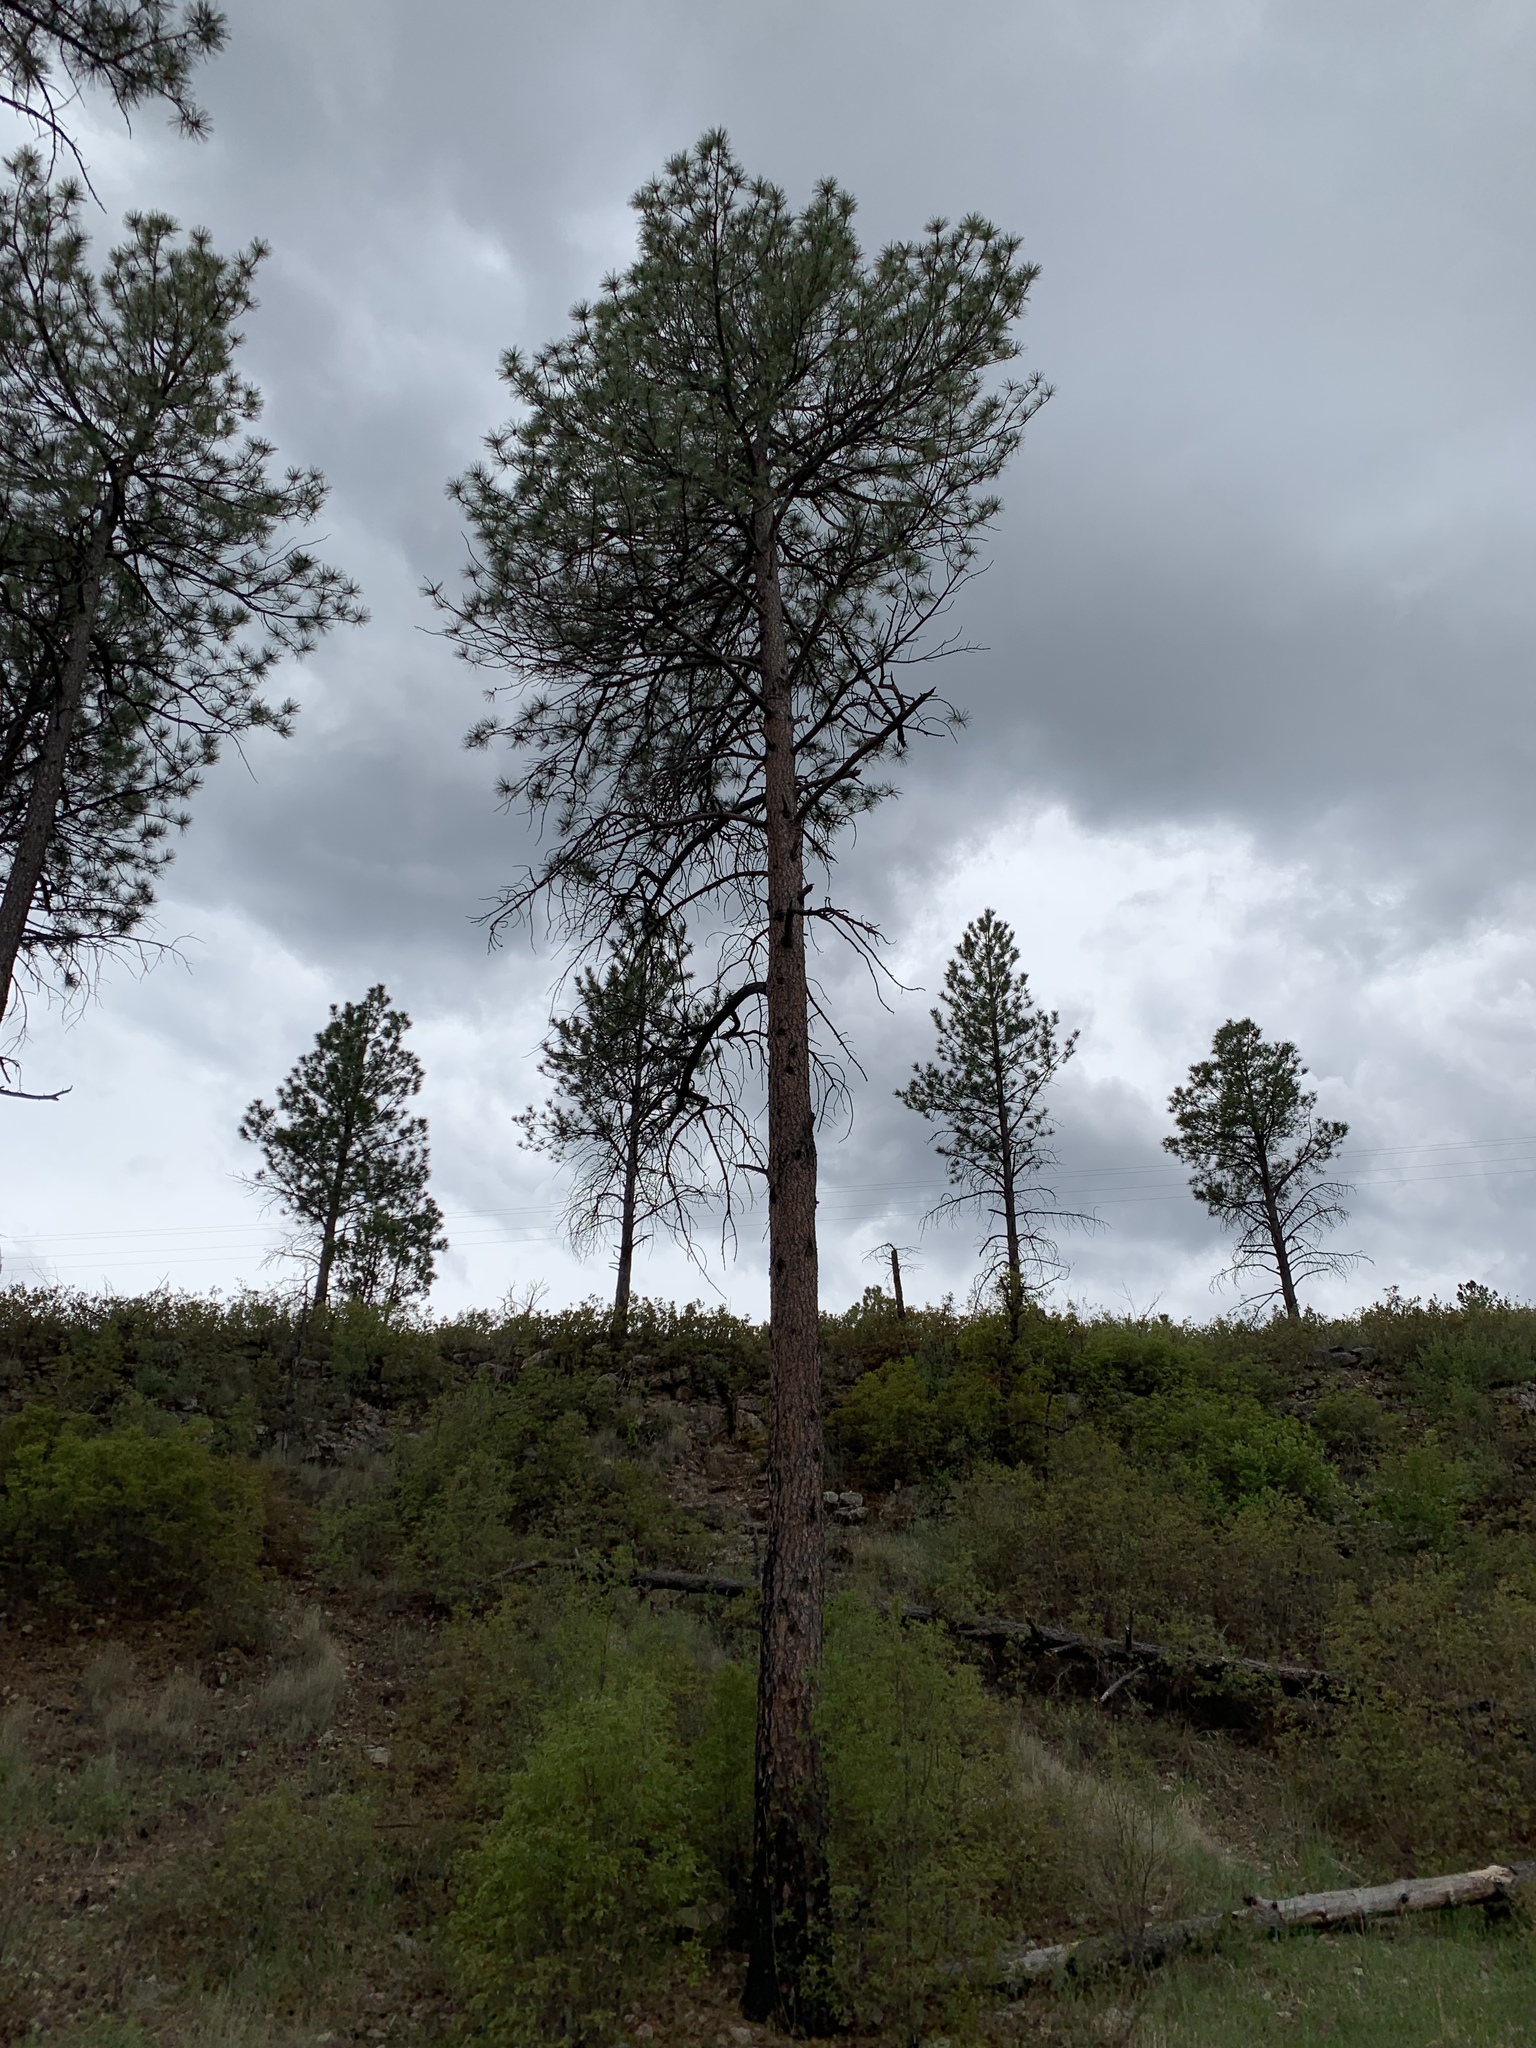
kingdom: Plantae
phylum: Tracheophyta
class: Pinopsida
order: Pinales
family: Pinaceae
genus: Pinus
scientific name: Pinus ponderosa
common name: Western yellow-pine
